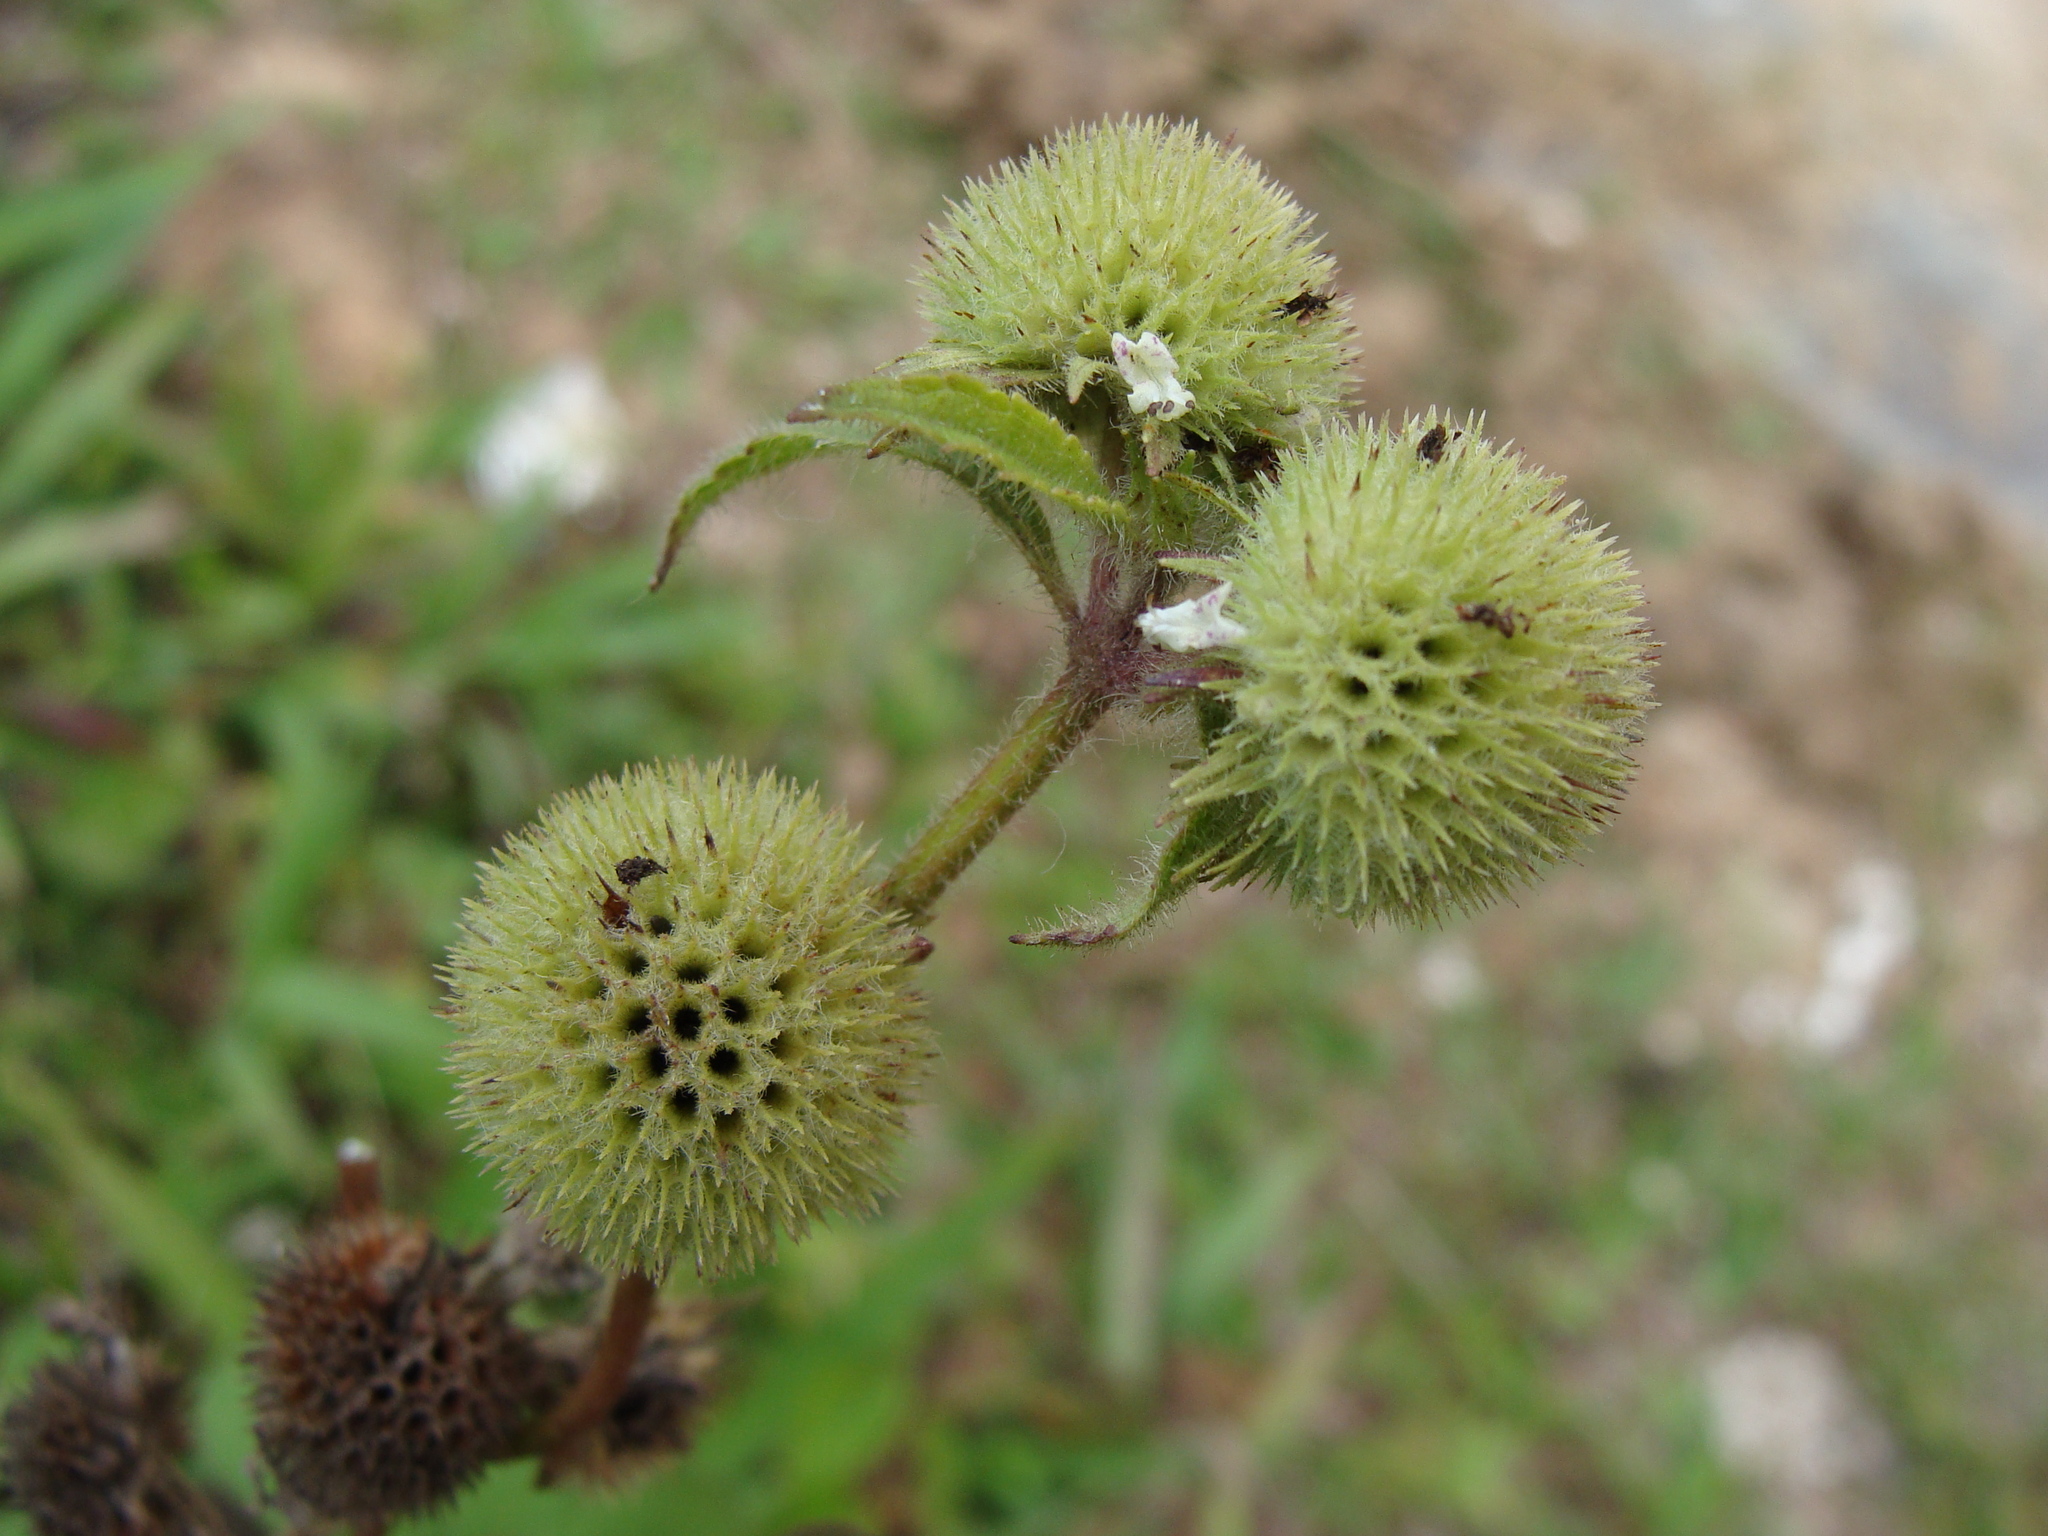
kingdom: Plantae
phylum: Tracheophyta
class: Magnoliopsida
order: Lamiales
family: Lamiaceae
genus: Hyptis
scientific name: Hyptis capitata
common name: False ironwort
